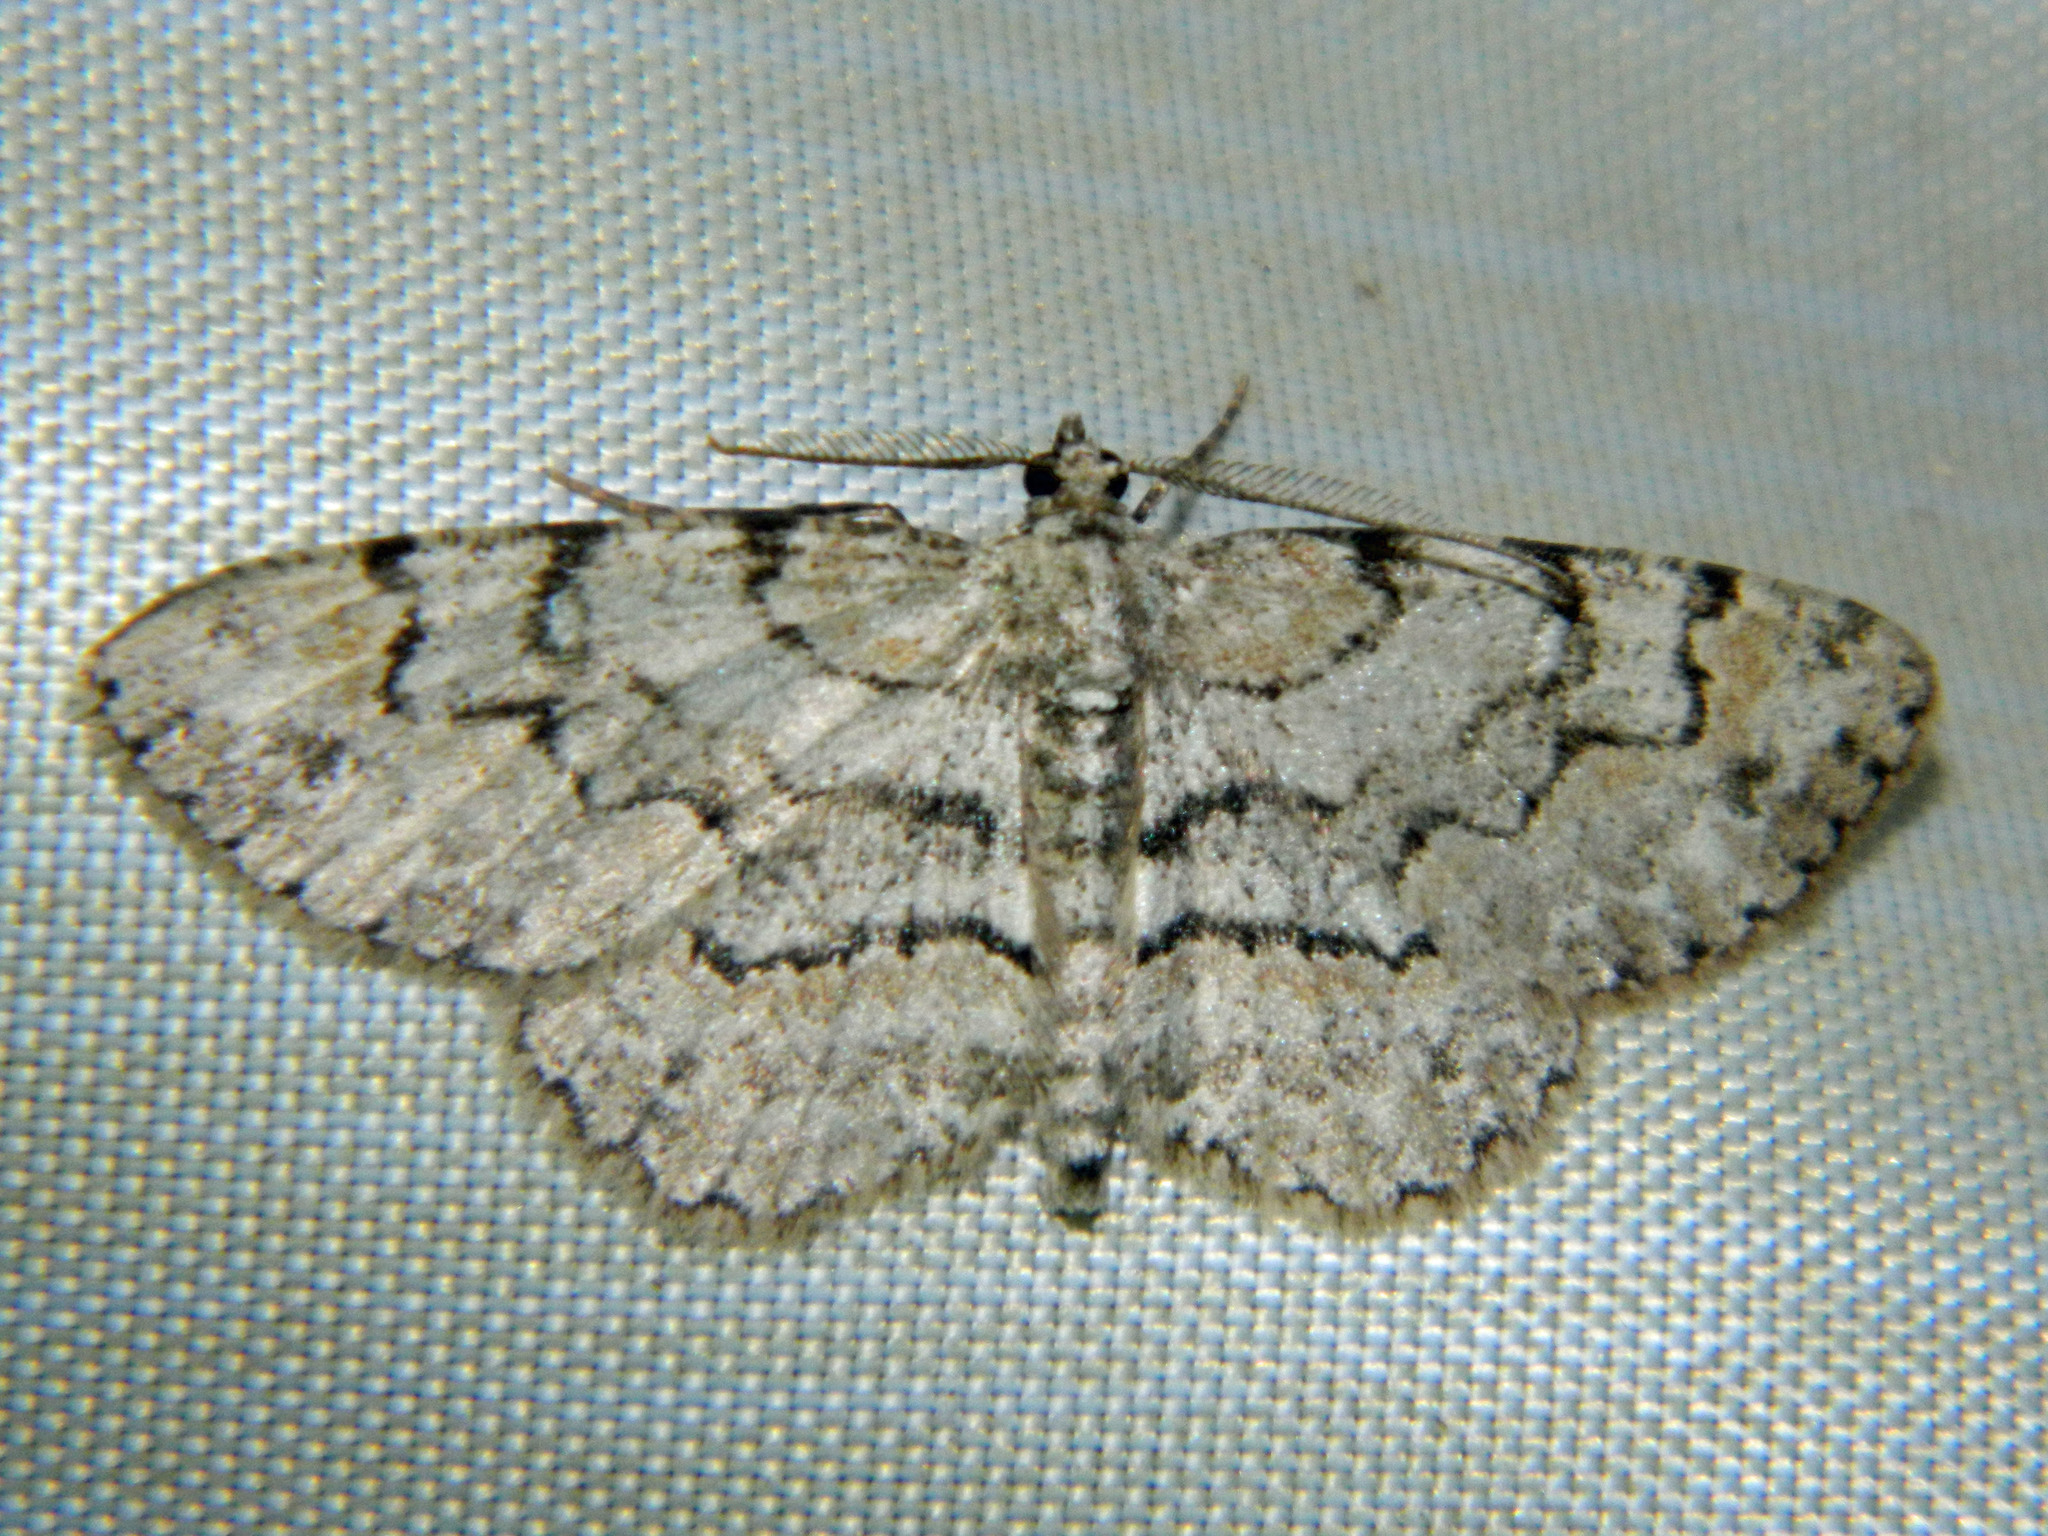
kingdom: Animalia
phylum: Arthropoda
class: Insecta
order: Lepidoptera
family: Geometridae
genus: Iridopsis
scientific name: Iridopsis ephyraria
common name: Pale-winged gray
